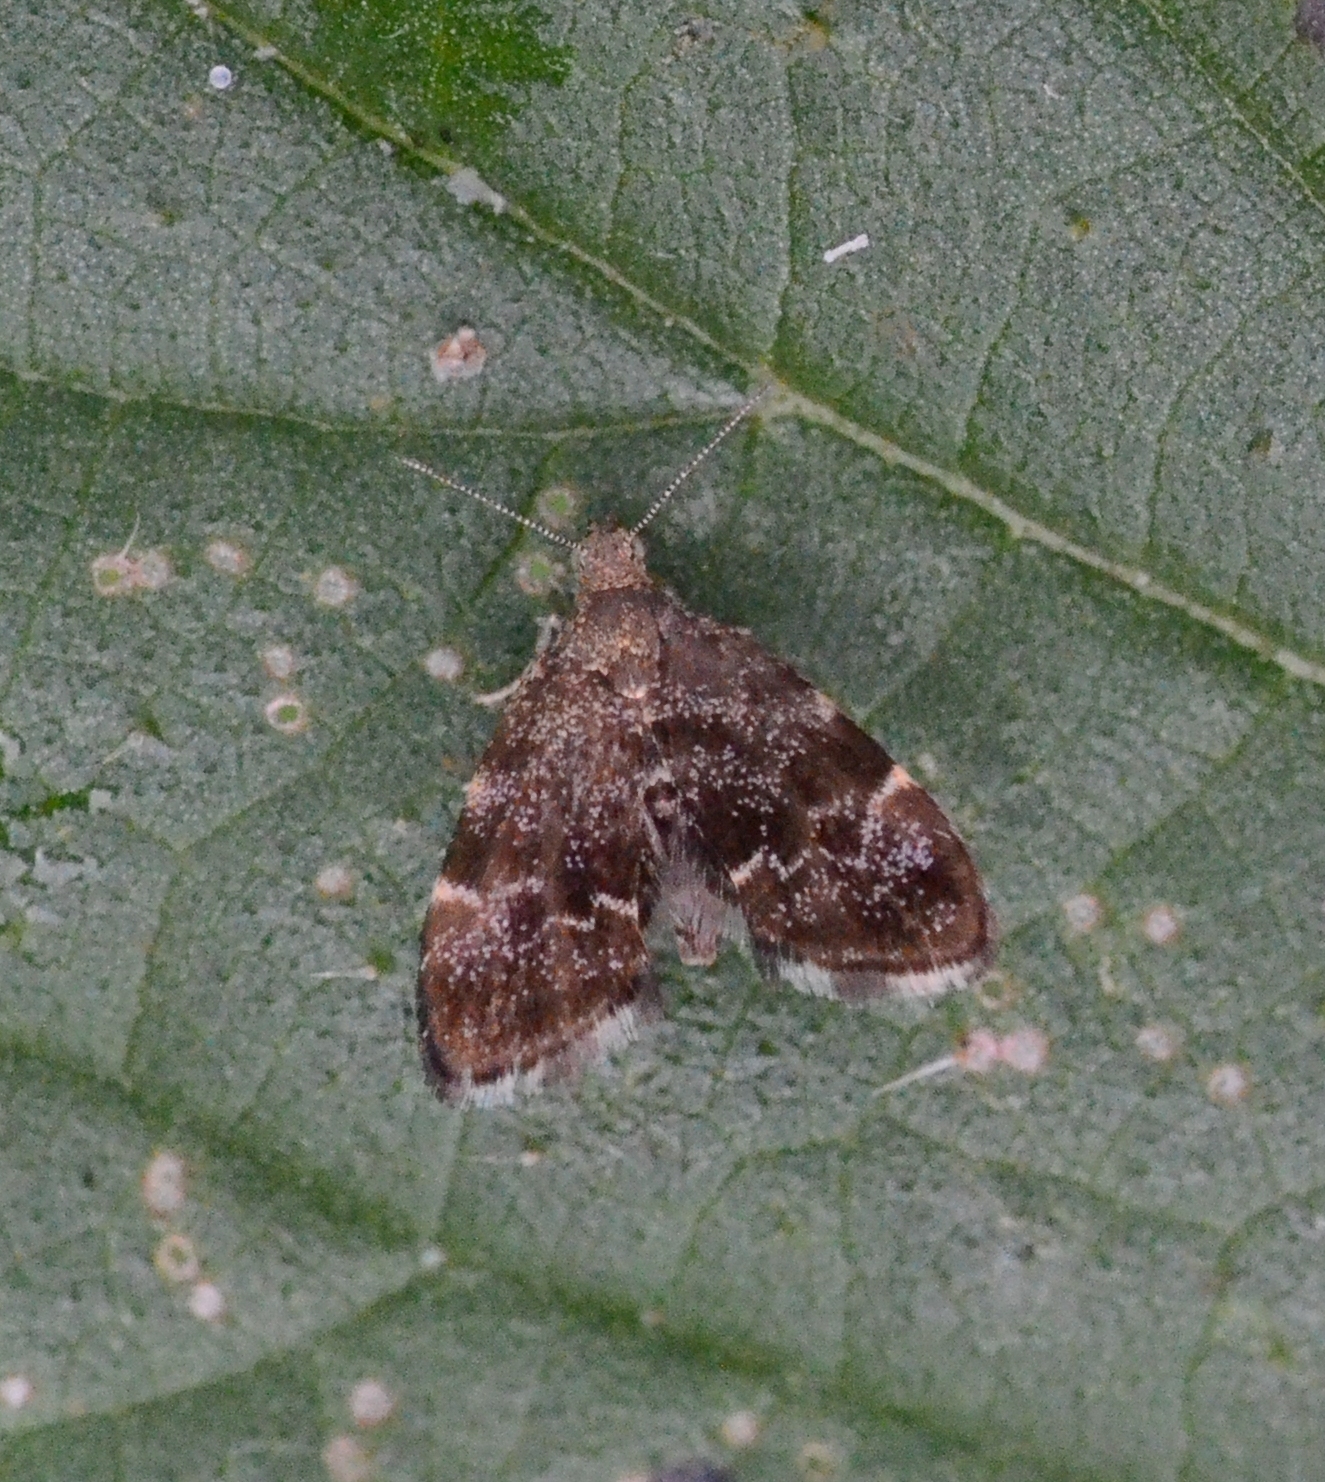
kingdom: Animalia
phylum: Arthropoda
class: Insecta
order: Lepidoptera
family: Choreutidae
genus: Anthophila
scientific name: Anthophila fabriciana
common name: Nettle-tap
